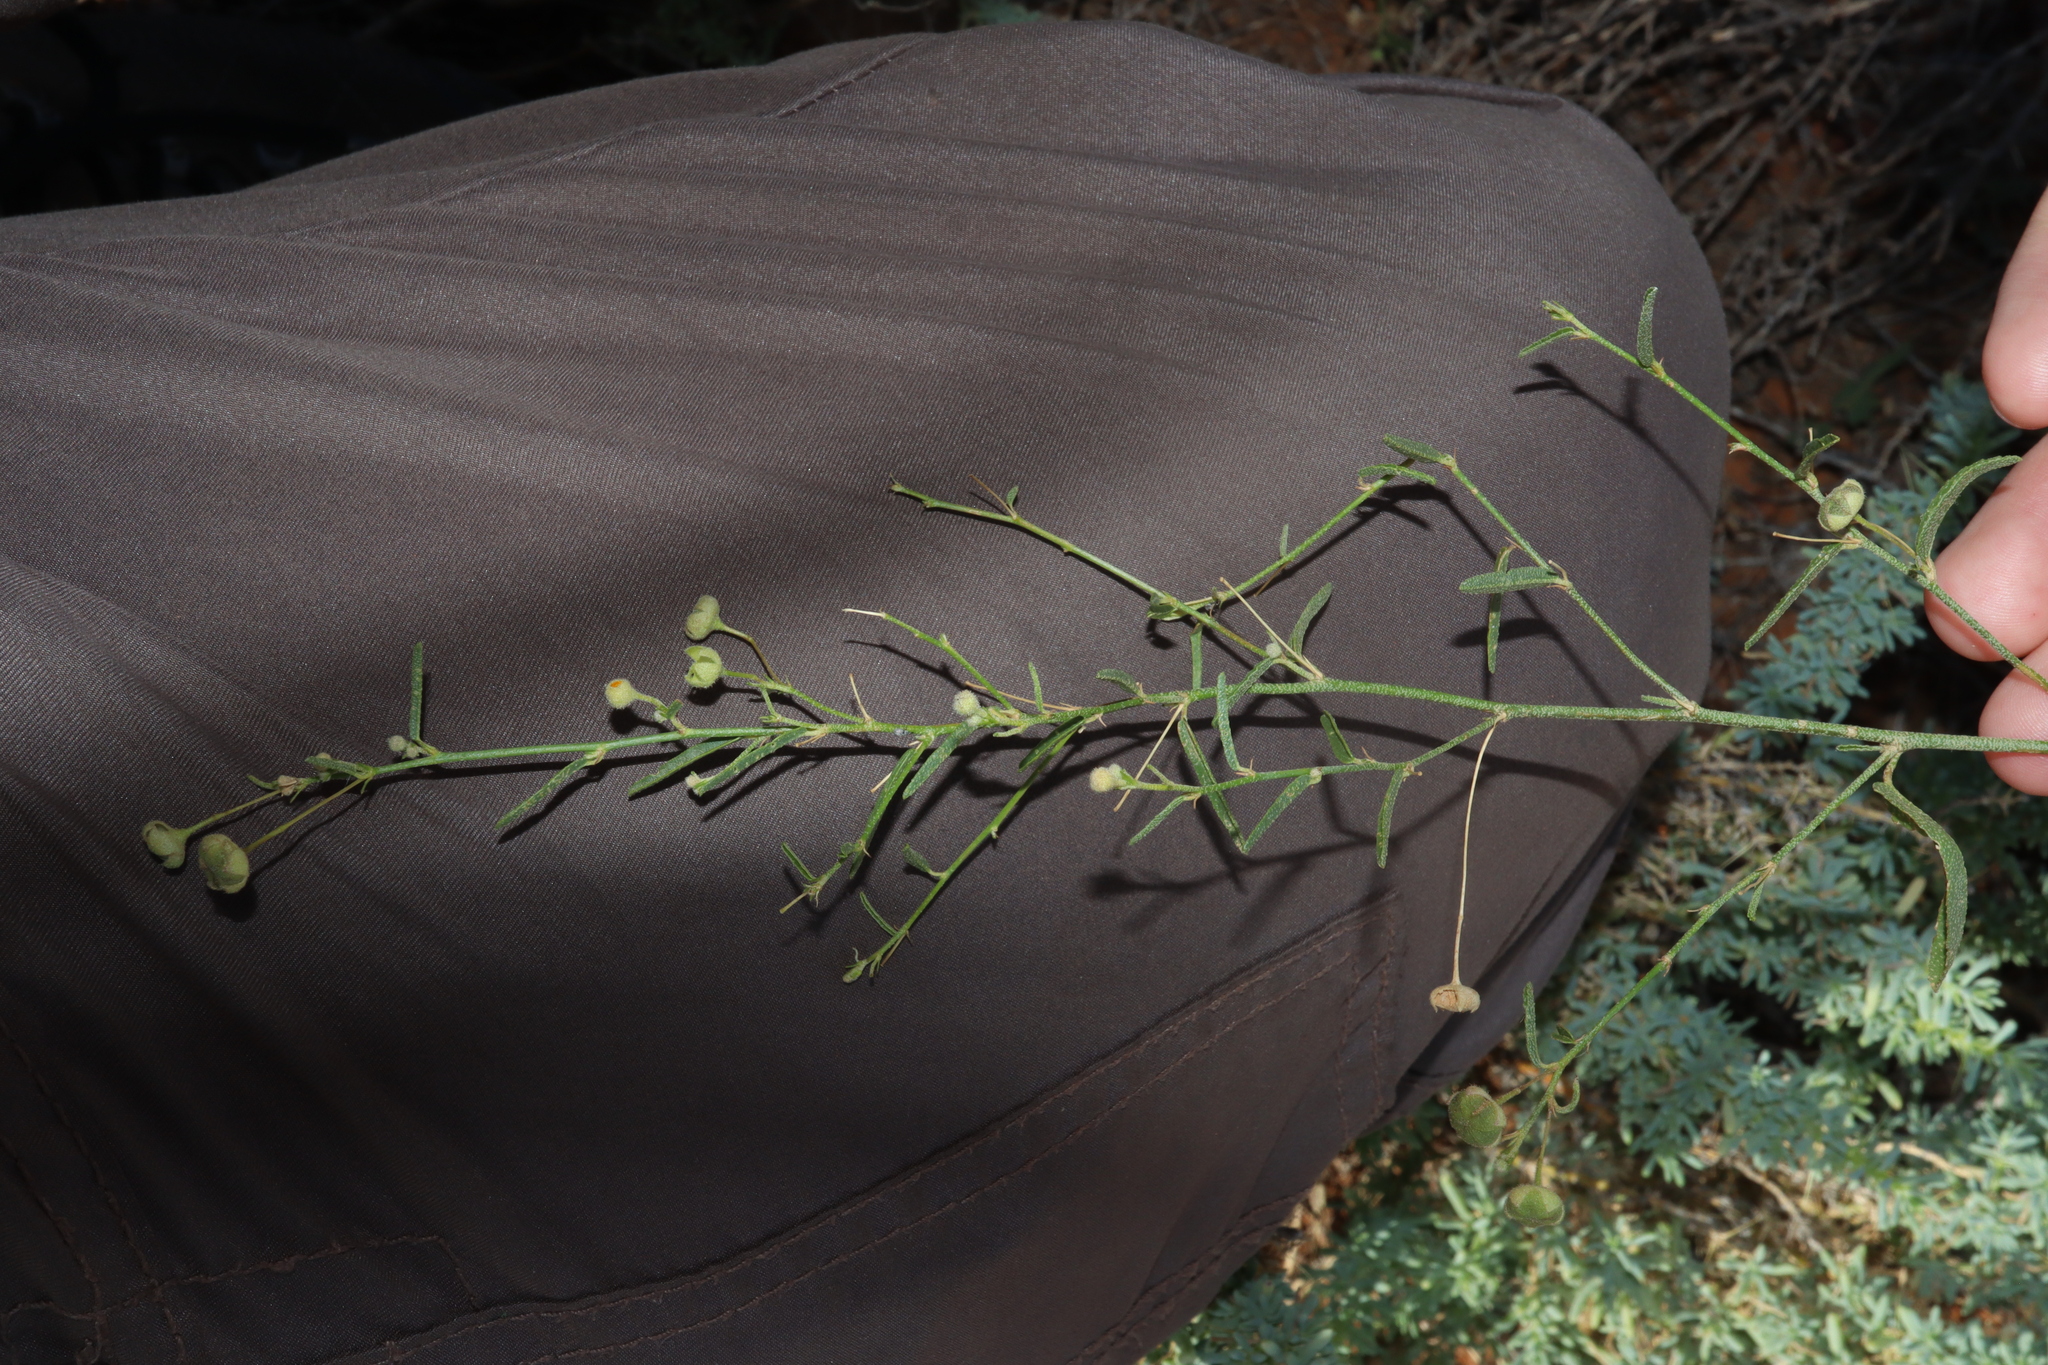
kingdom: Plantae
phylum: Tracheophyta
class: Magnoliopsida
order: Malvales
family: Malvaceae
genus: Sida
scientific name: Sida trichopoda
